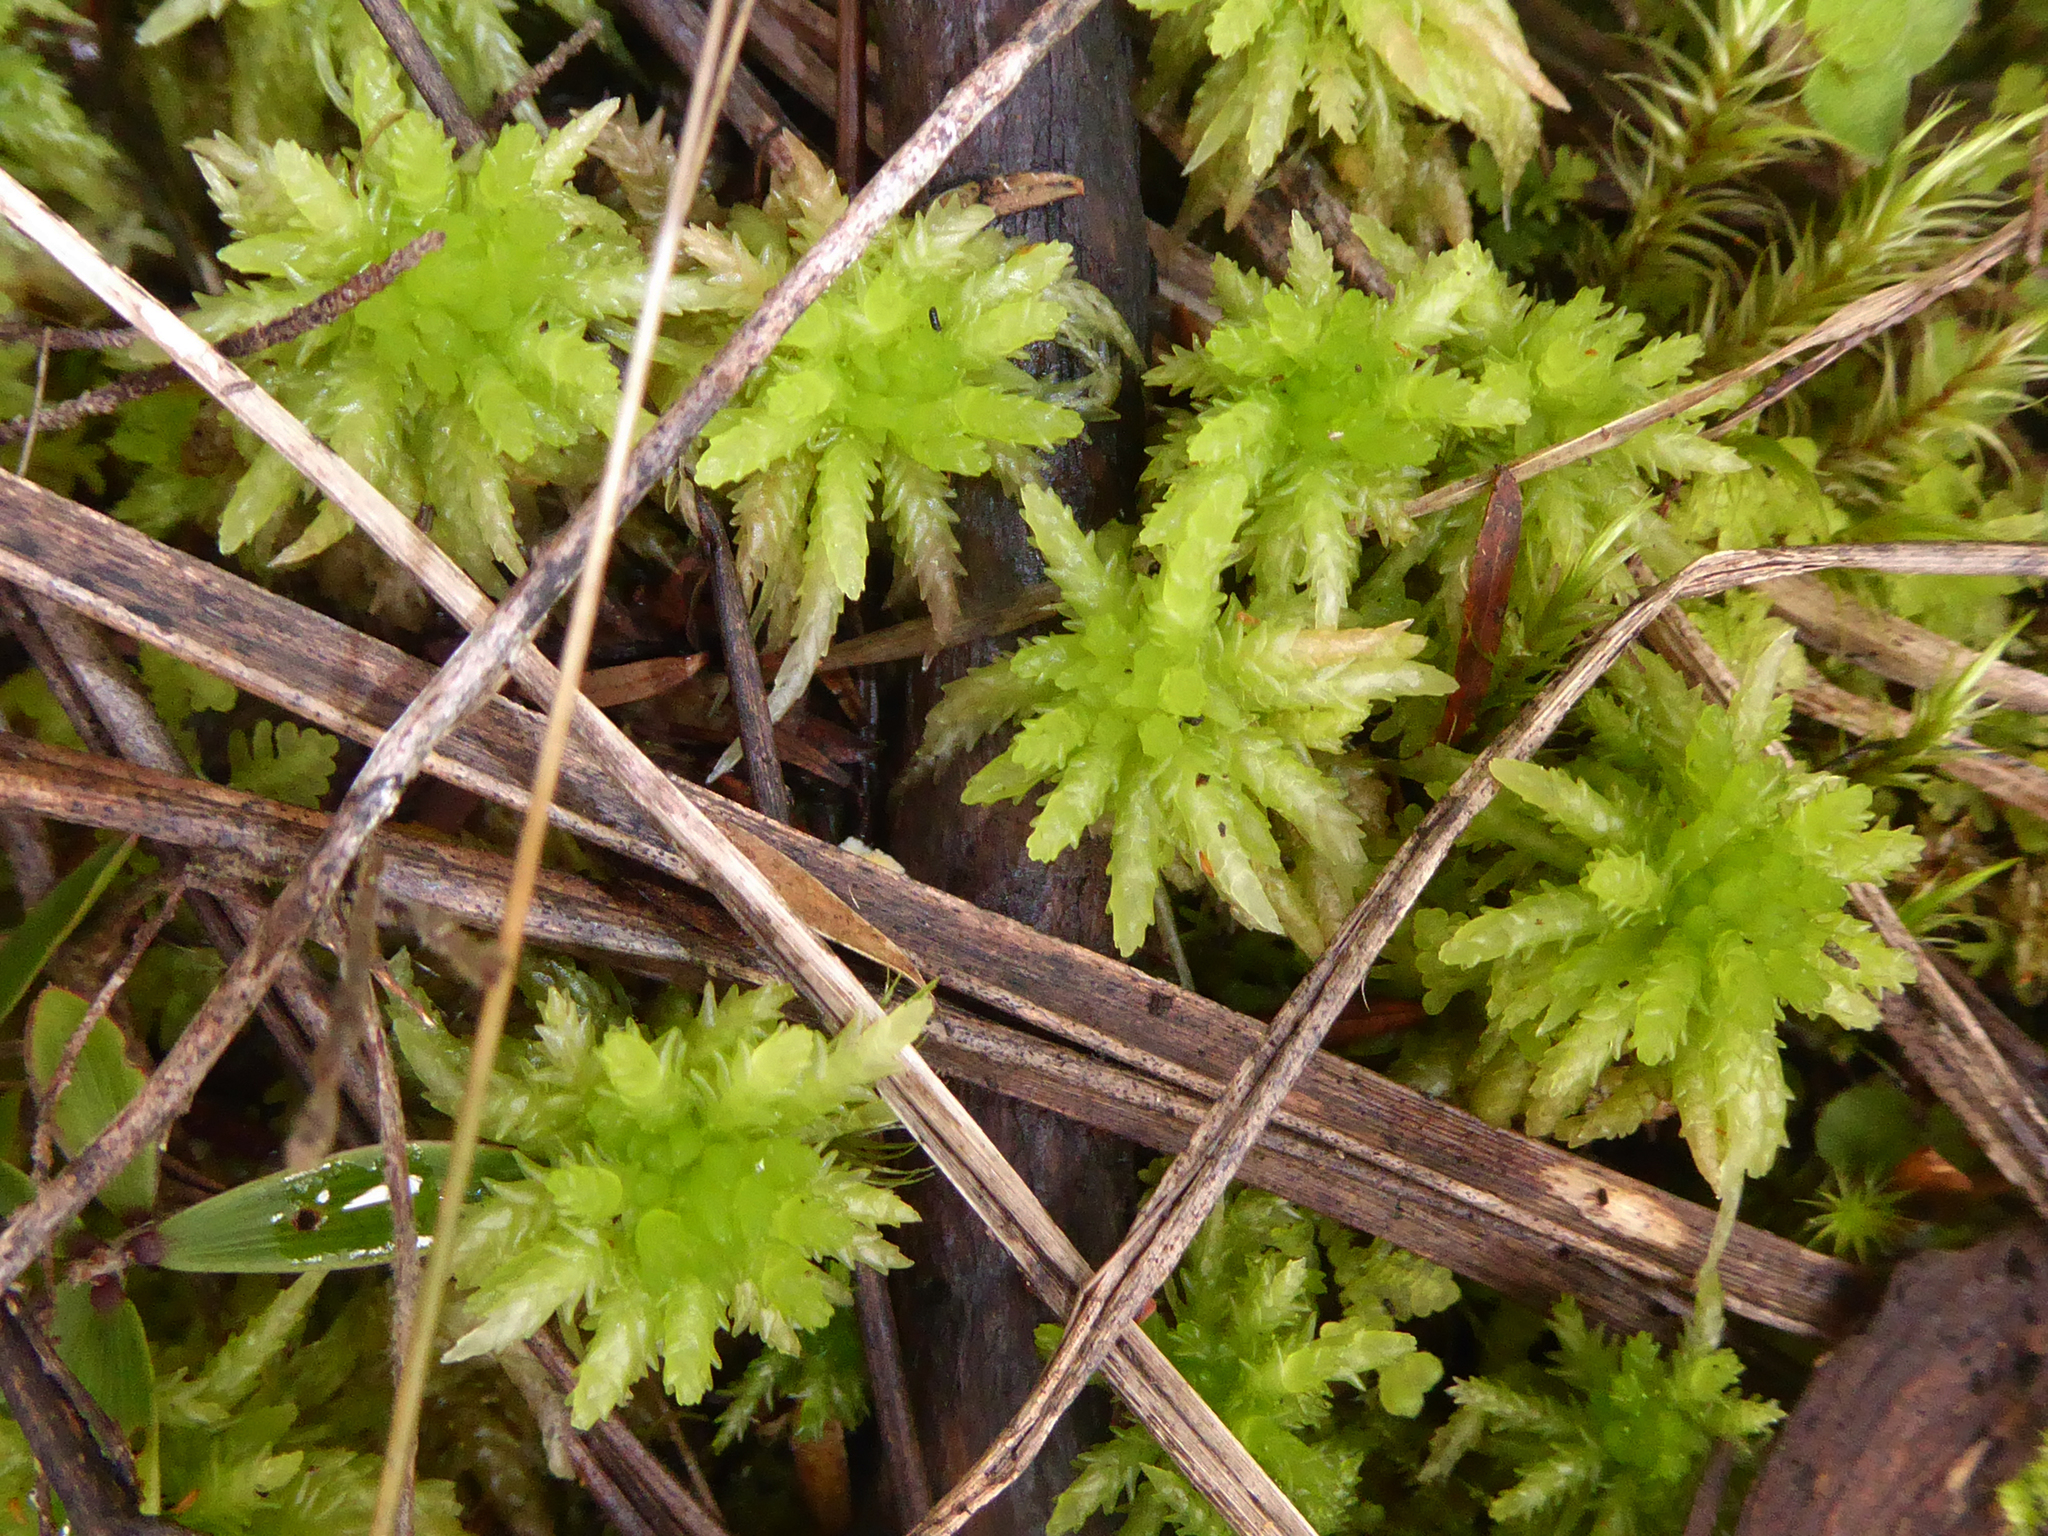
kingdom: Plantae
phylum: Bryophyta
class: Sphagnopsida
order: Sphagnales
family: Sphagnaceae
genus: Sphagnum
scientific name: Sphagnum cristatum
